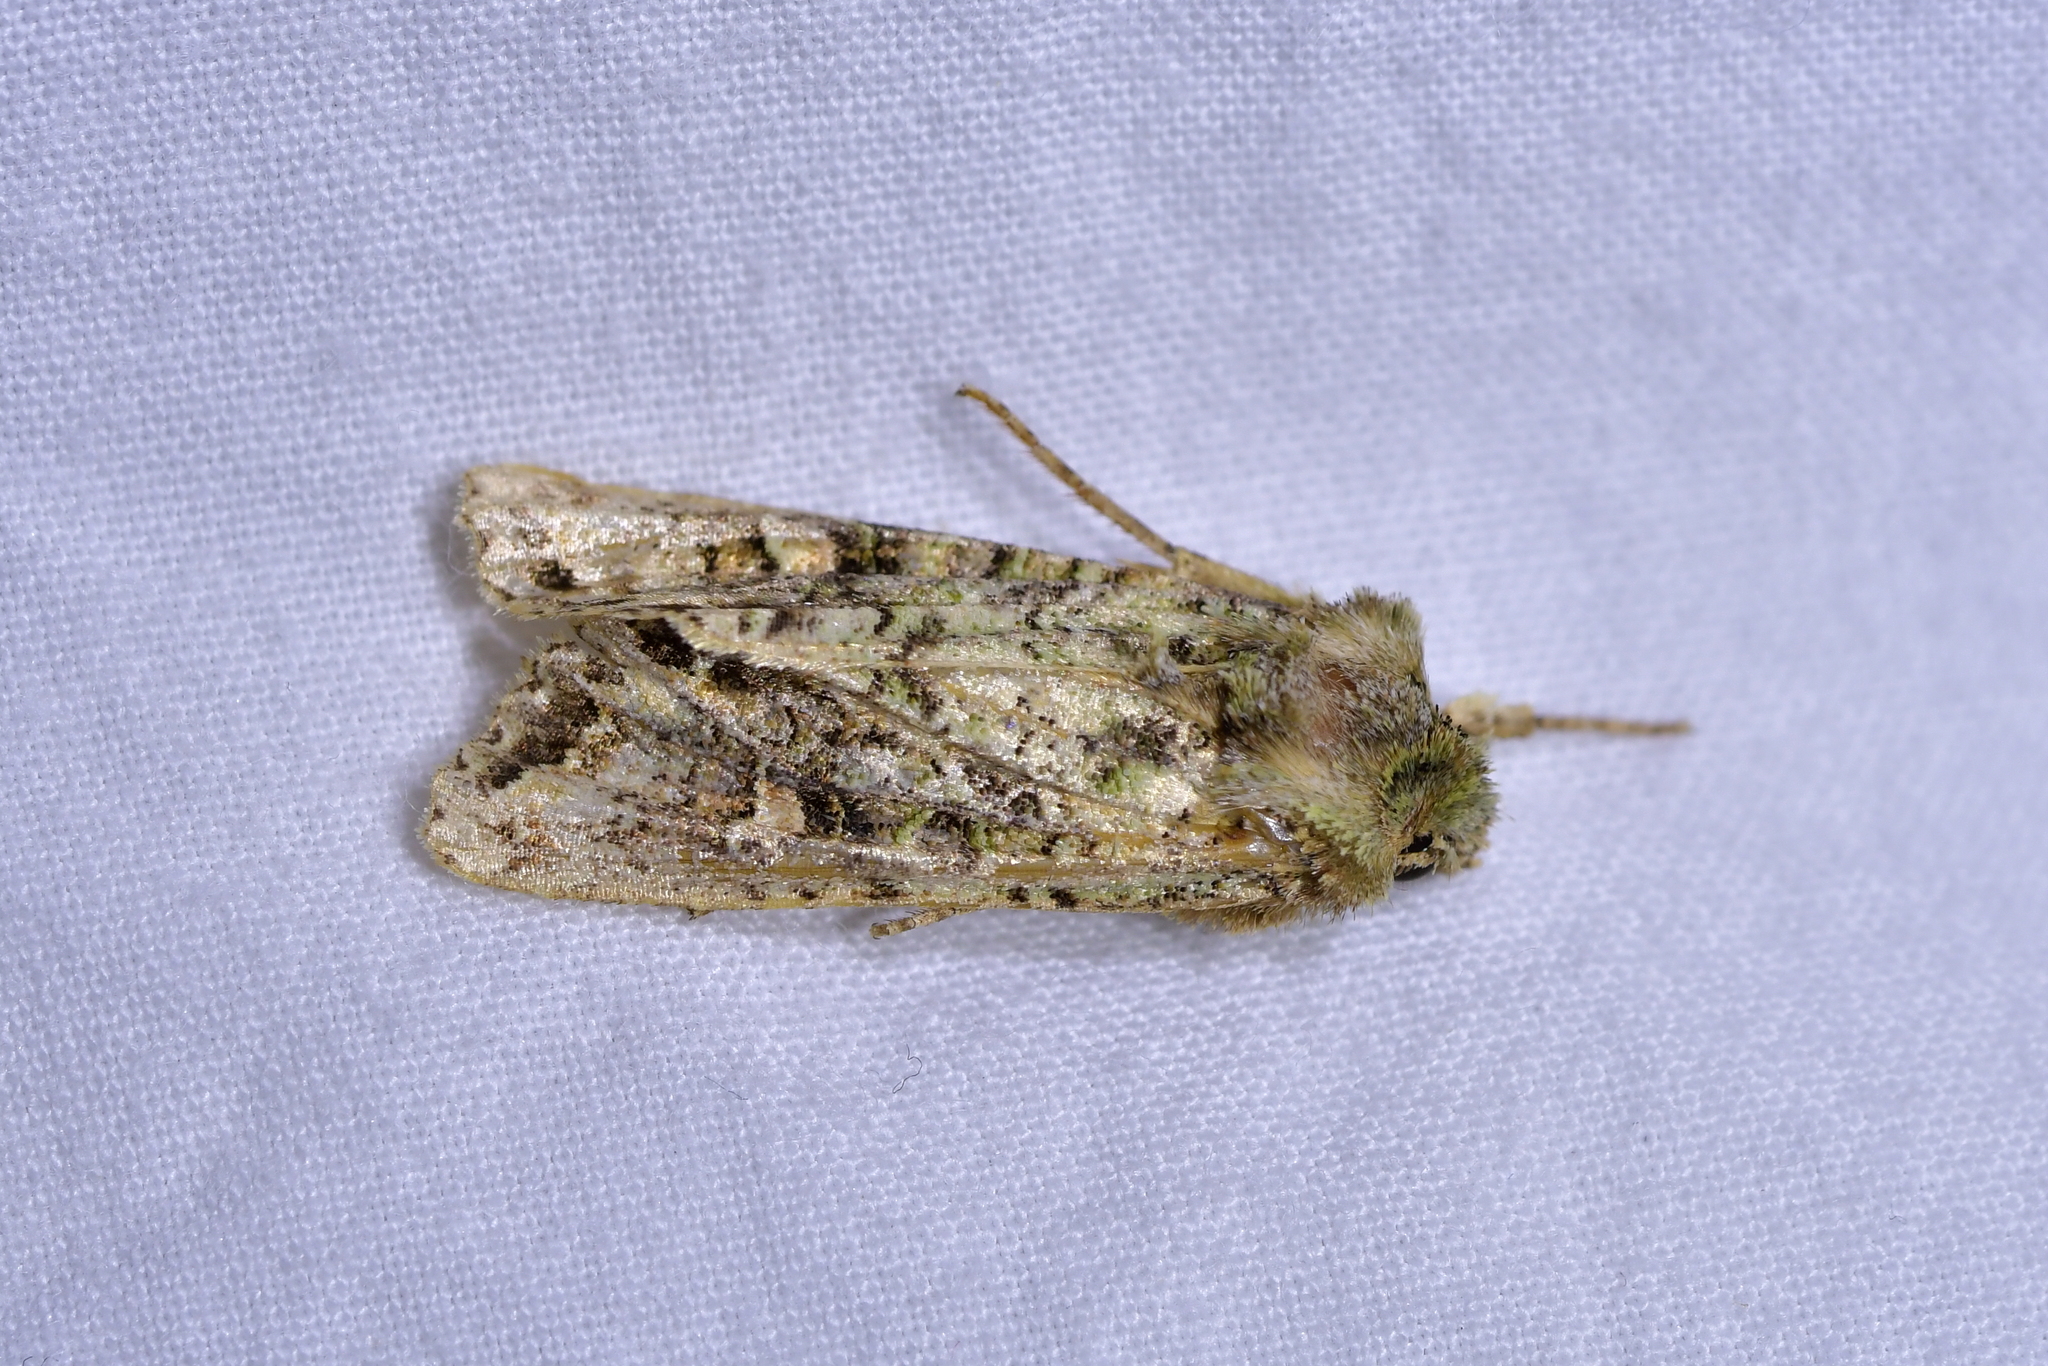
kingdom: Animalia
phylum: Arthropoda
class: Insecta
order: Lepidoptera
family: Noctuidae
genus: Ichneutica
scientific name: Ichneutica
